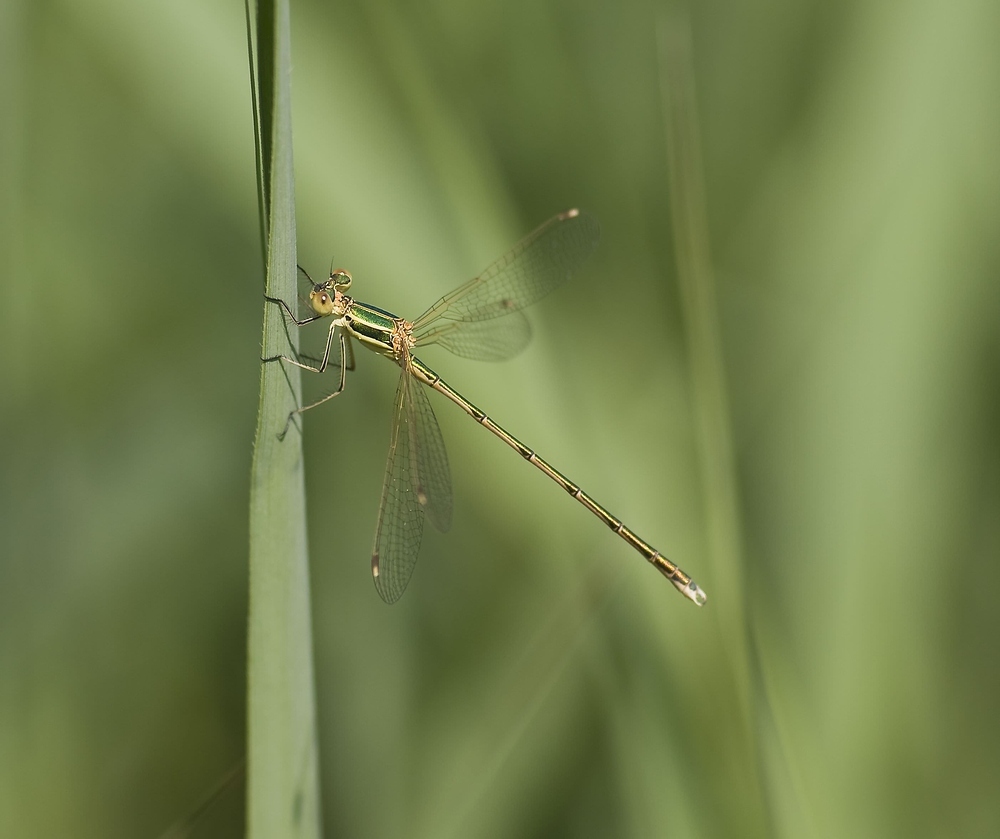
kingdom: Animalia
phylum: Arthropoda
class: Insecta
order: Odonata
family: Lestidae
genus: Lestes
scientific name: Lestes barbarus
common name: Migrant spreadwing
